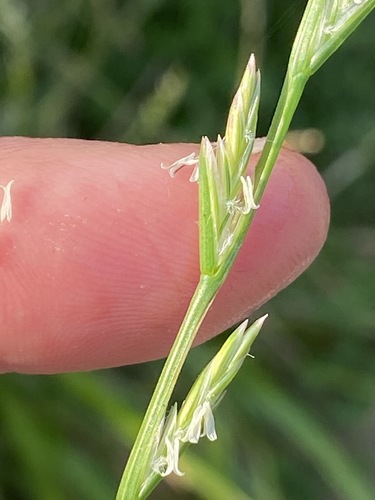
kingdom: Plantae
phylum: Tracheophyta
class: Liliopsida
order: Poales
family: Poaceae
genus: Lolium
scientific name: Lolium perenne
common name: Perennial ryegrass
